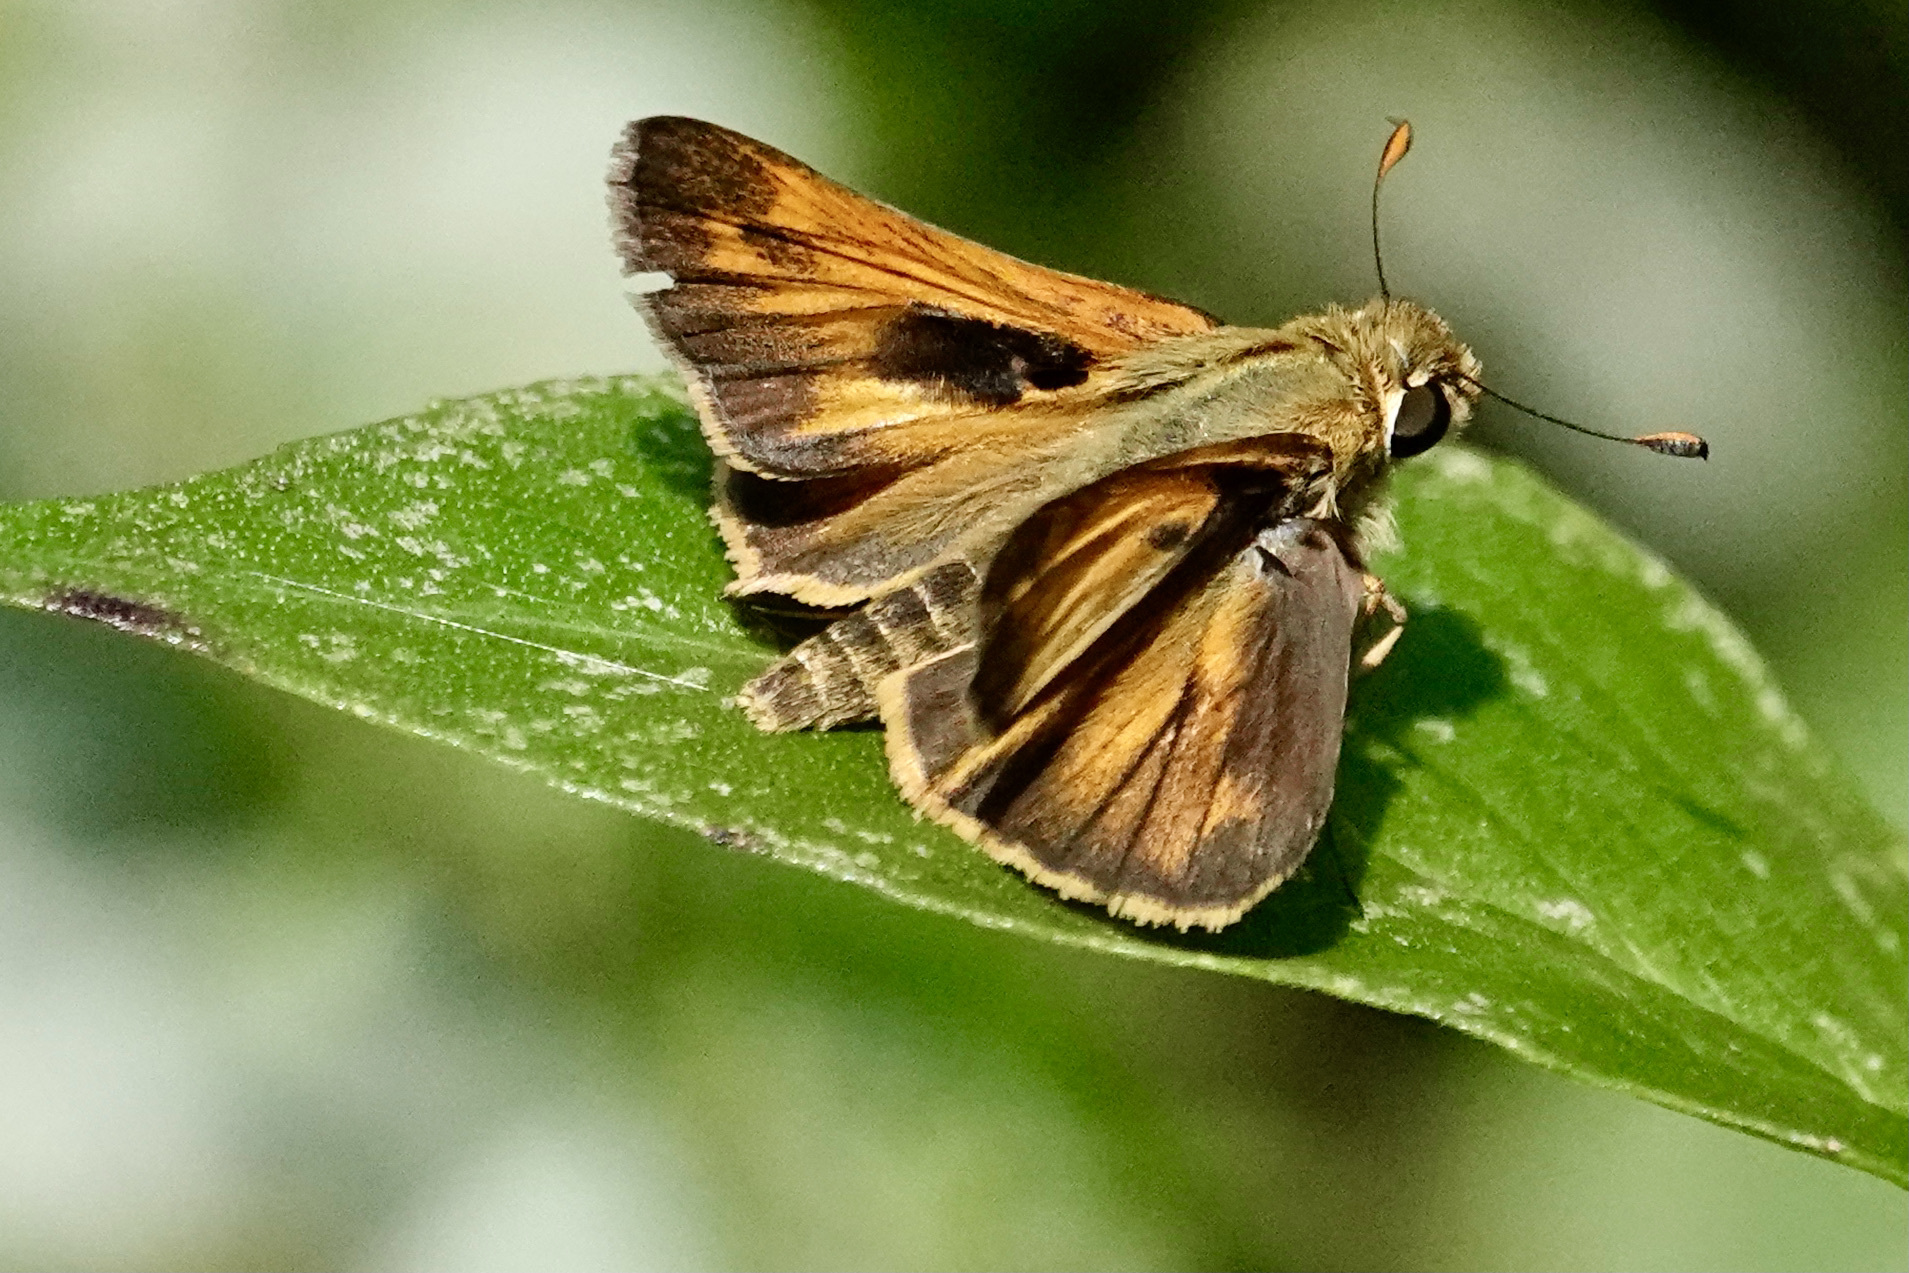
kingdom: Animalia
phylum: Arthropoda
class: Insecta
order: Lepidoptera
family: Hesperiidae
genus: Atalopedes
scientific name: Atalopedes
